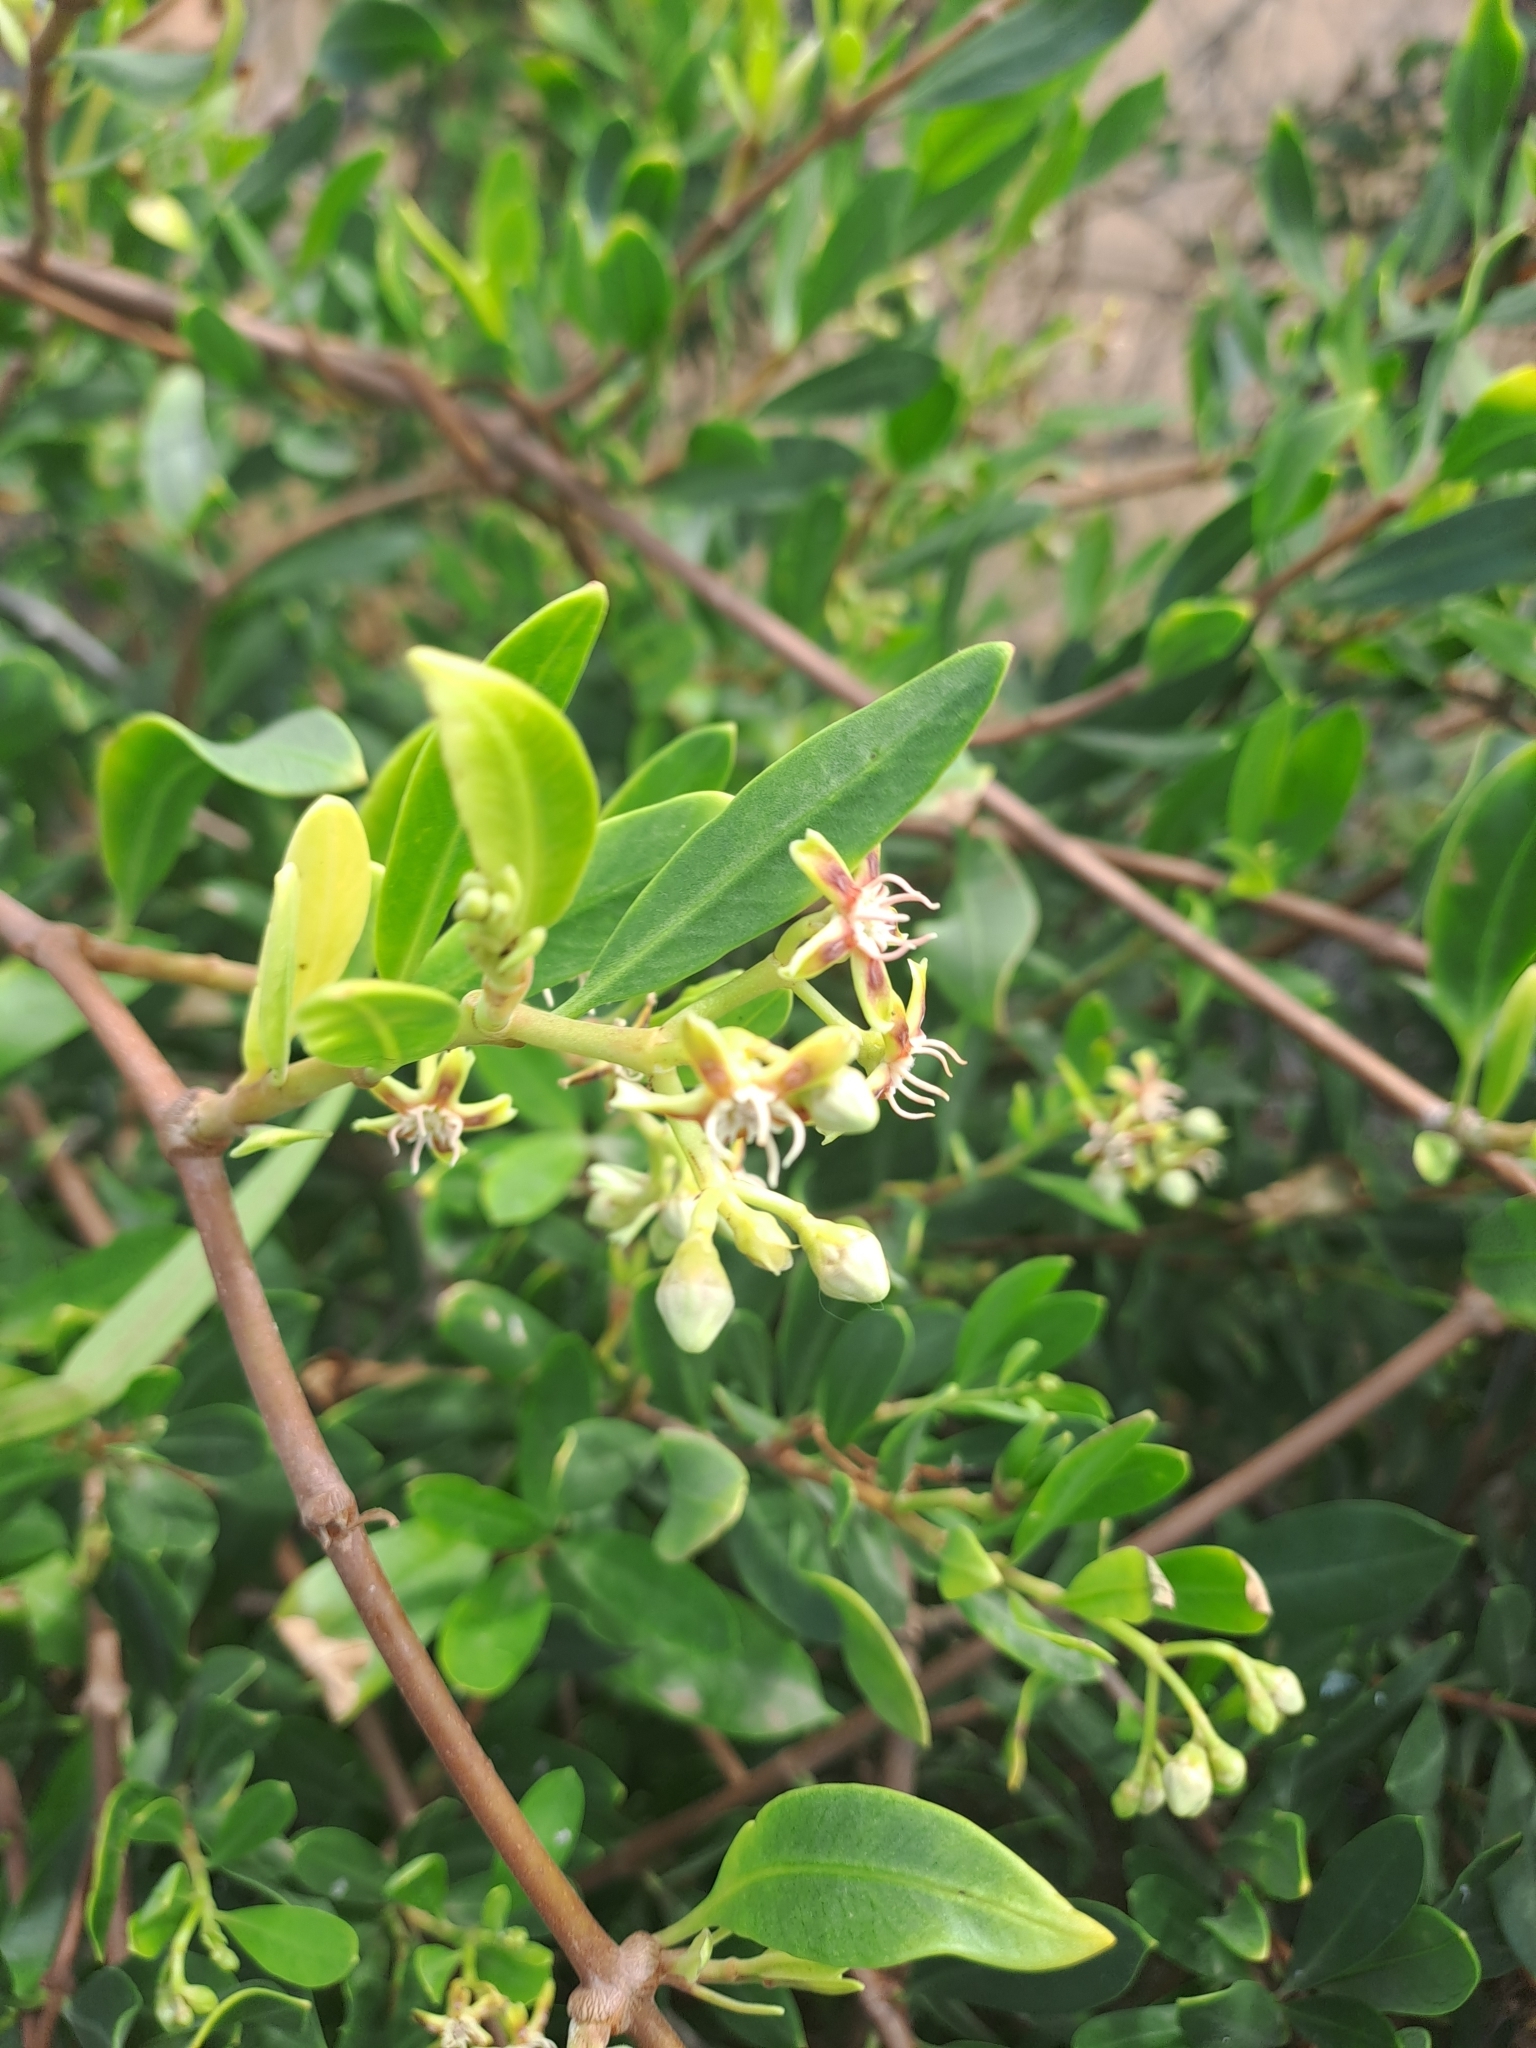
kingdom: Plantae
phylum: Tracheophyta
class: Magnoliopsida
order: Gentianales
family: Apocynaceae
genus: Periploca
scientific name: Periploca laevigata
